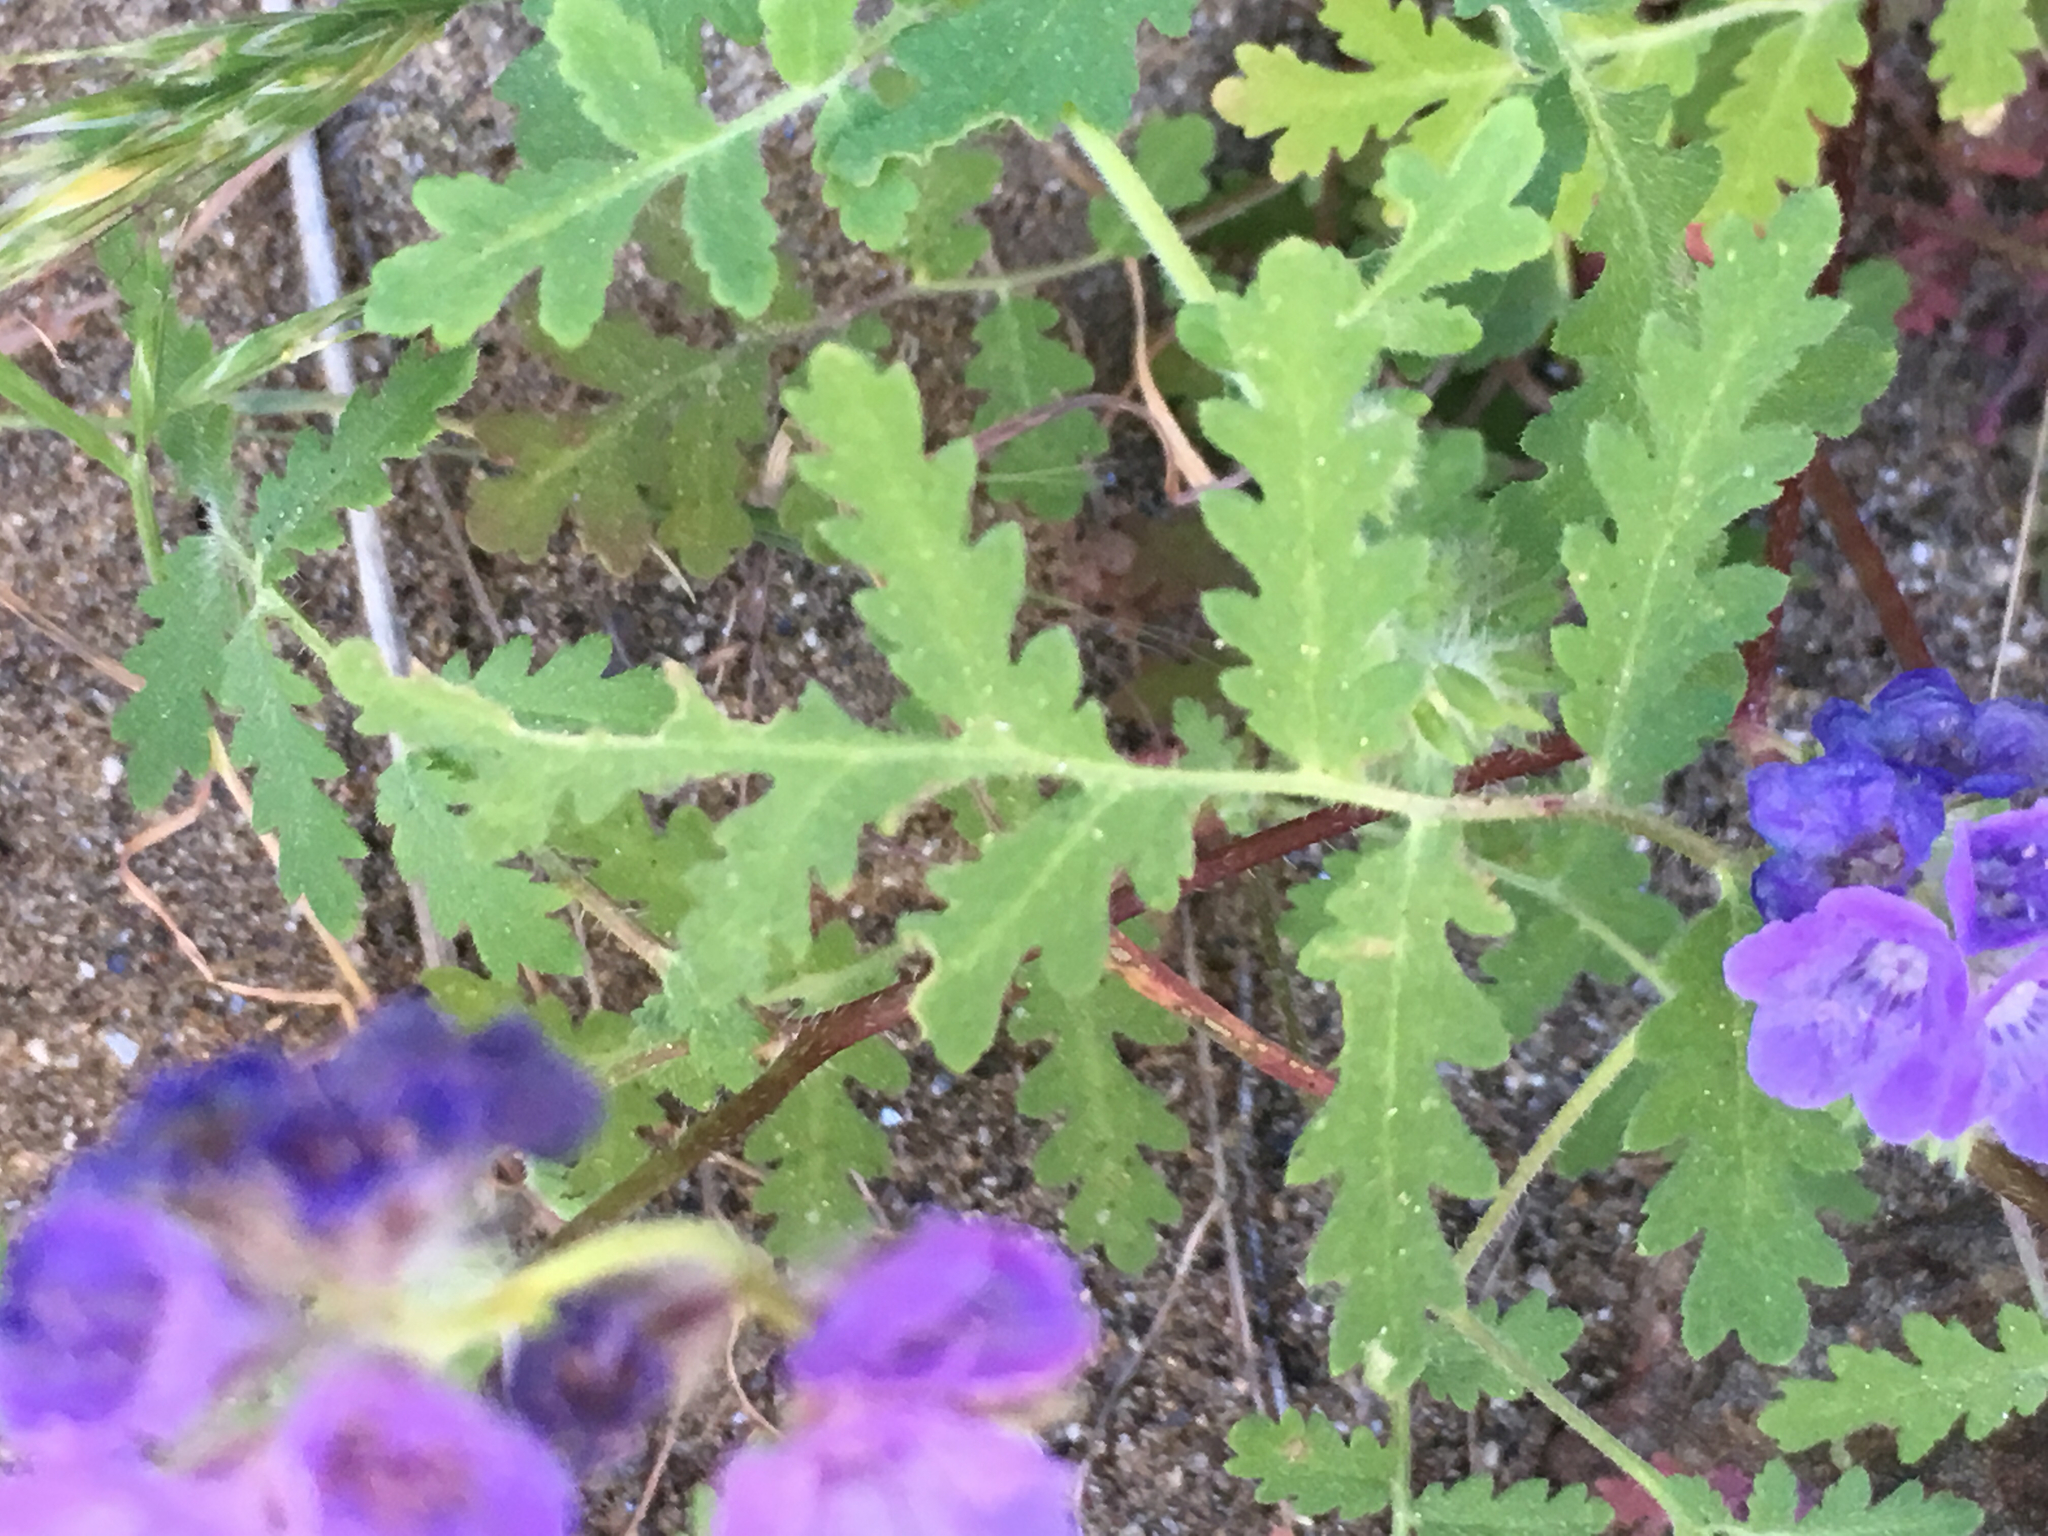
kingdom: Plantae
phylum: Tracheophyta
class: Magnoliopsida
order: Boraginales
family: Hydrophyllaceae
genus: Phacelia
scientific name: Phacelia distans
